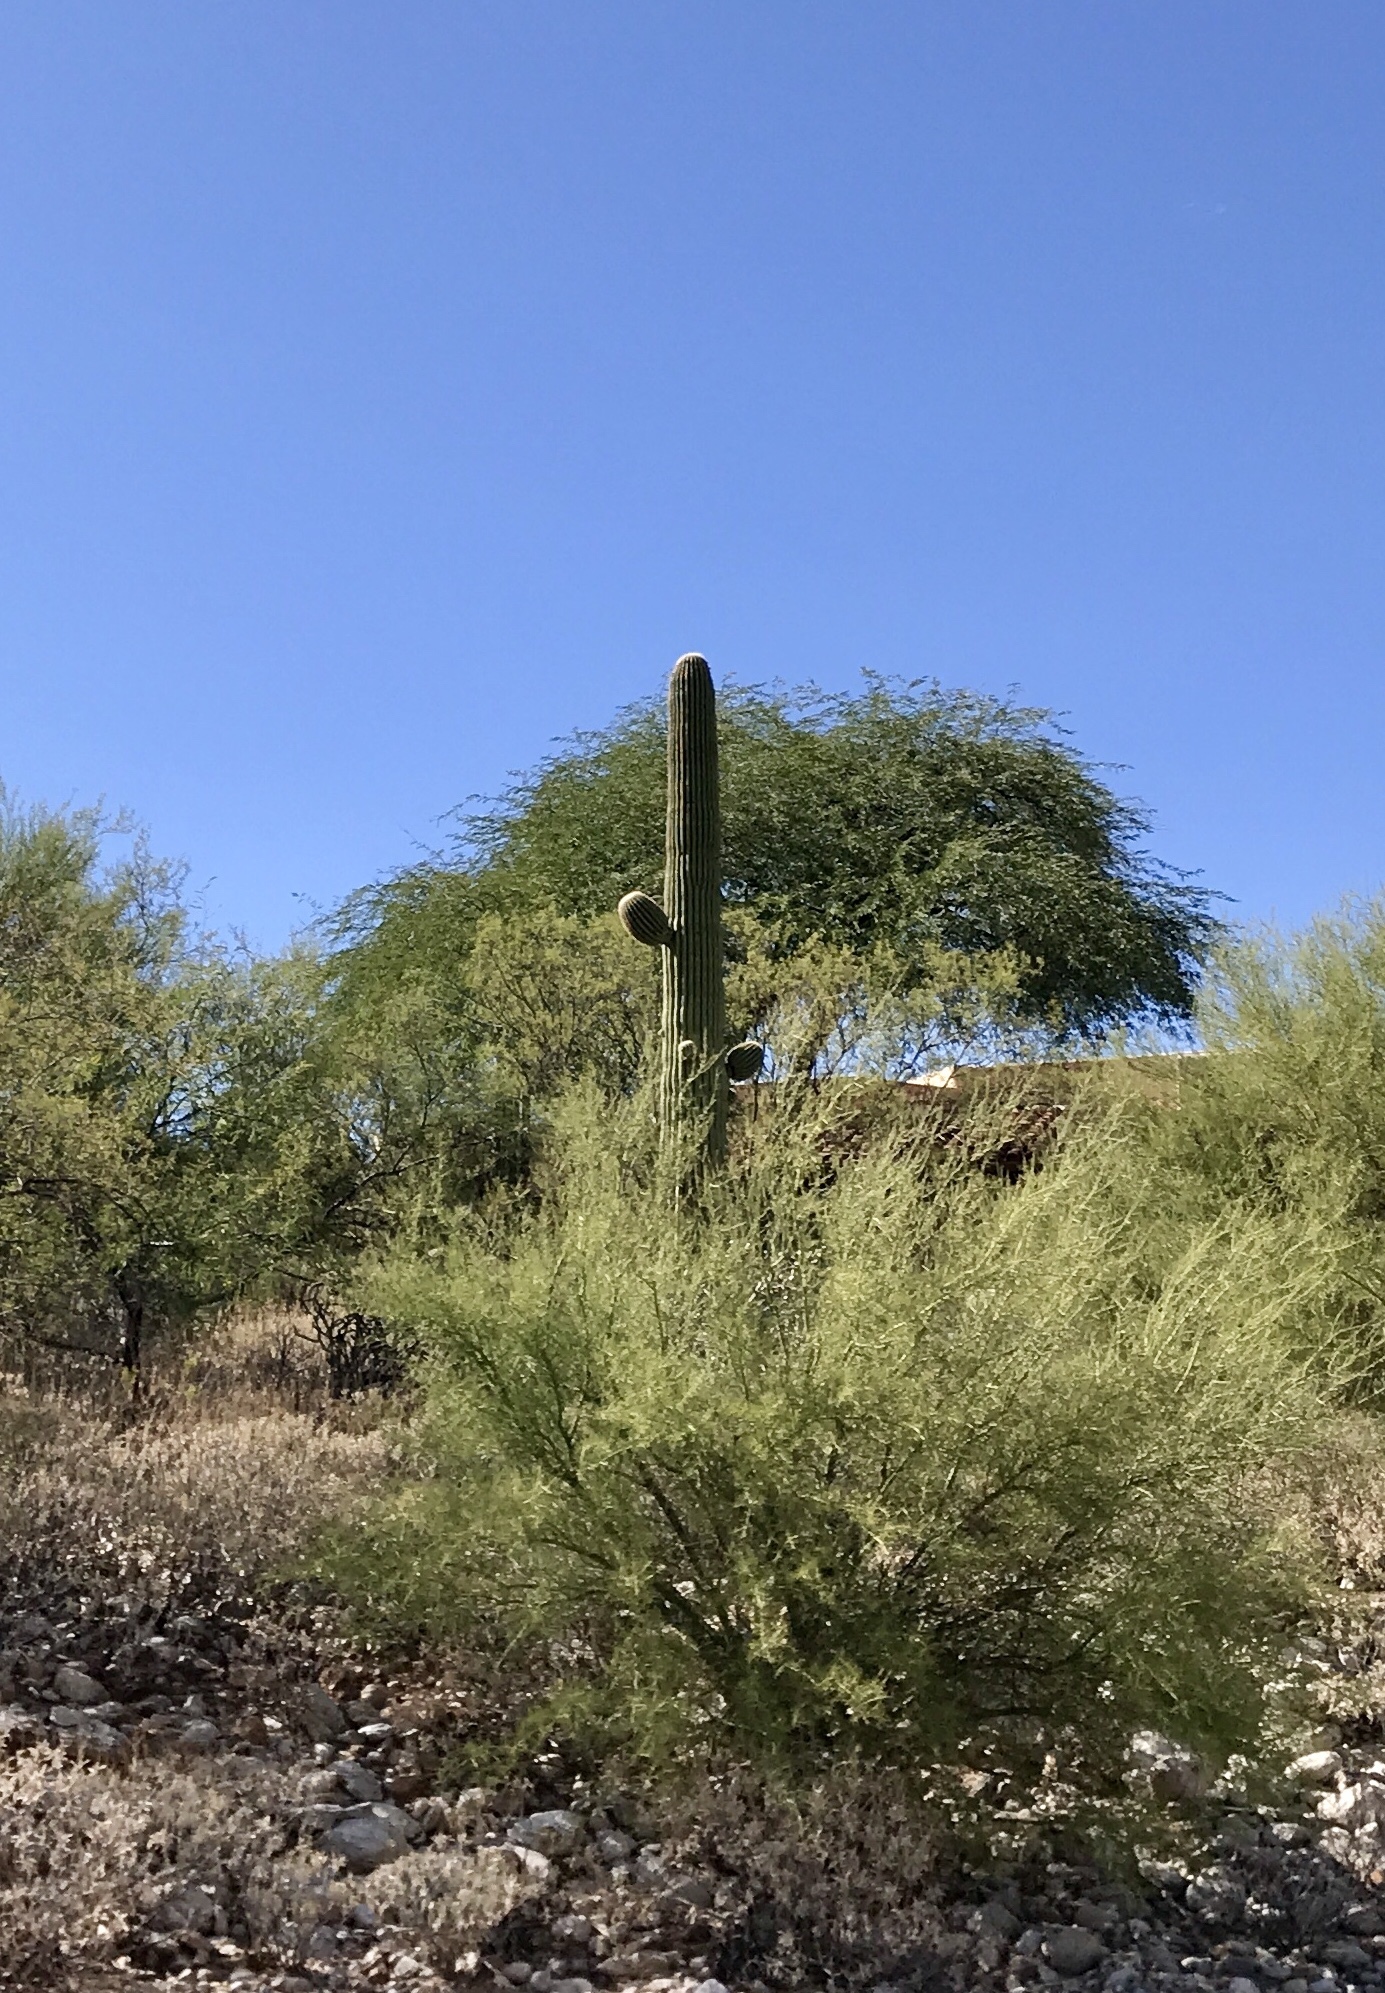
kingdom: Plantae
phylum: Tracheophyta
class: Magnoliopsida
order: Caryophyllales
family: Cactaceae
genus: Carnegiea
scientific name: Carnegiea gigantea
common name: Saguaro
